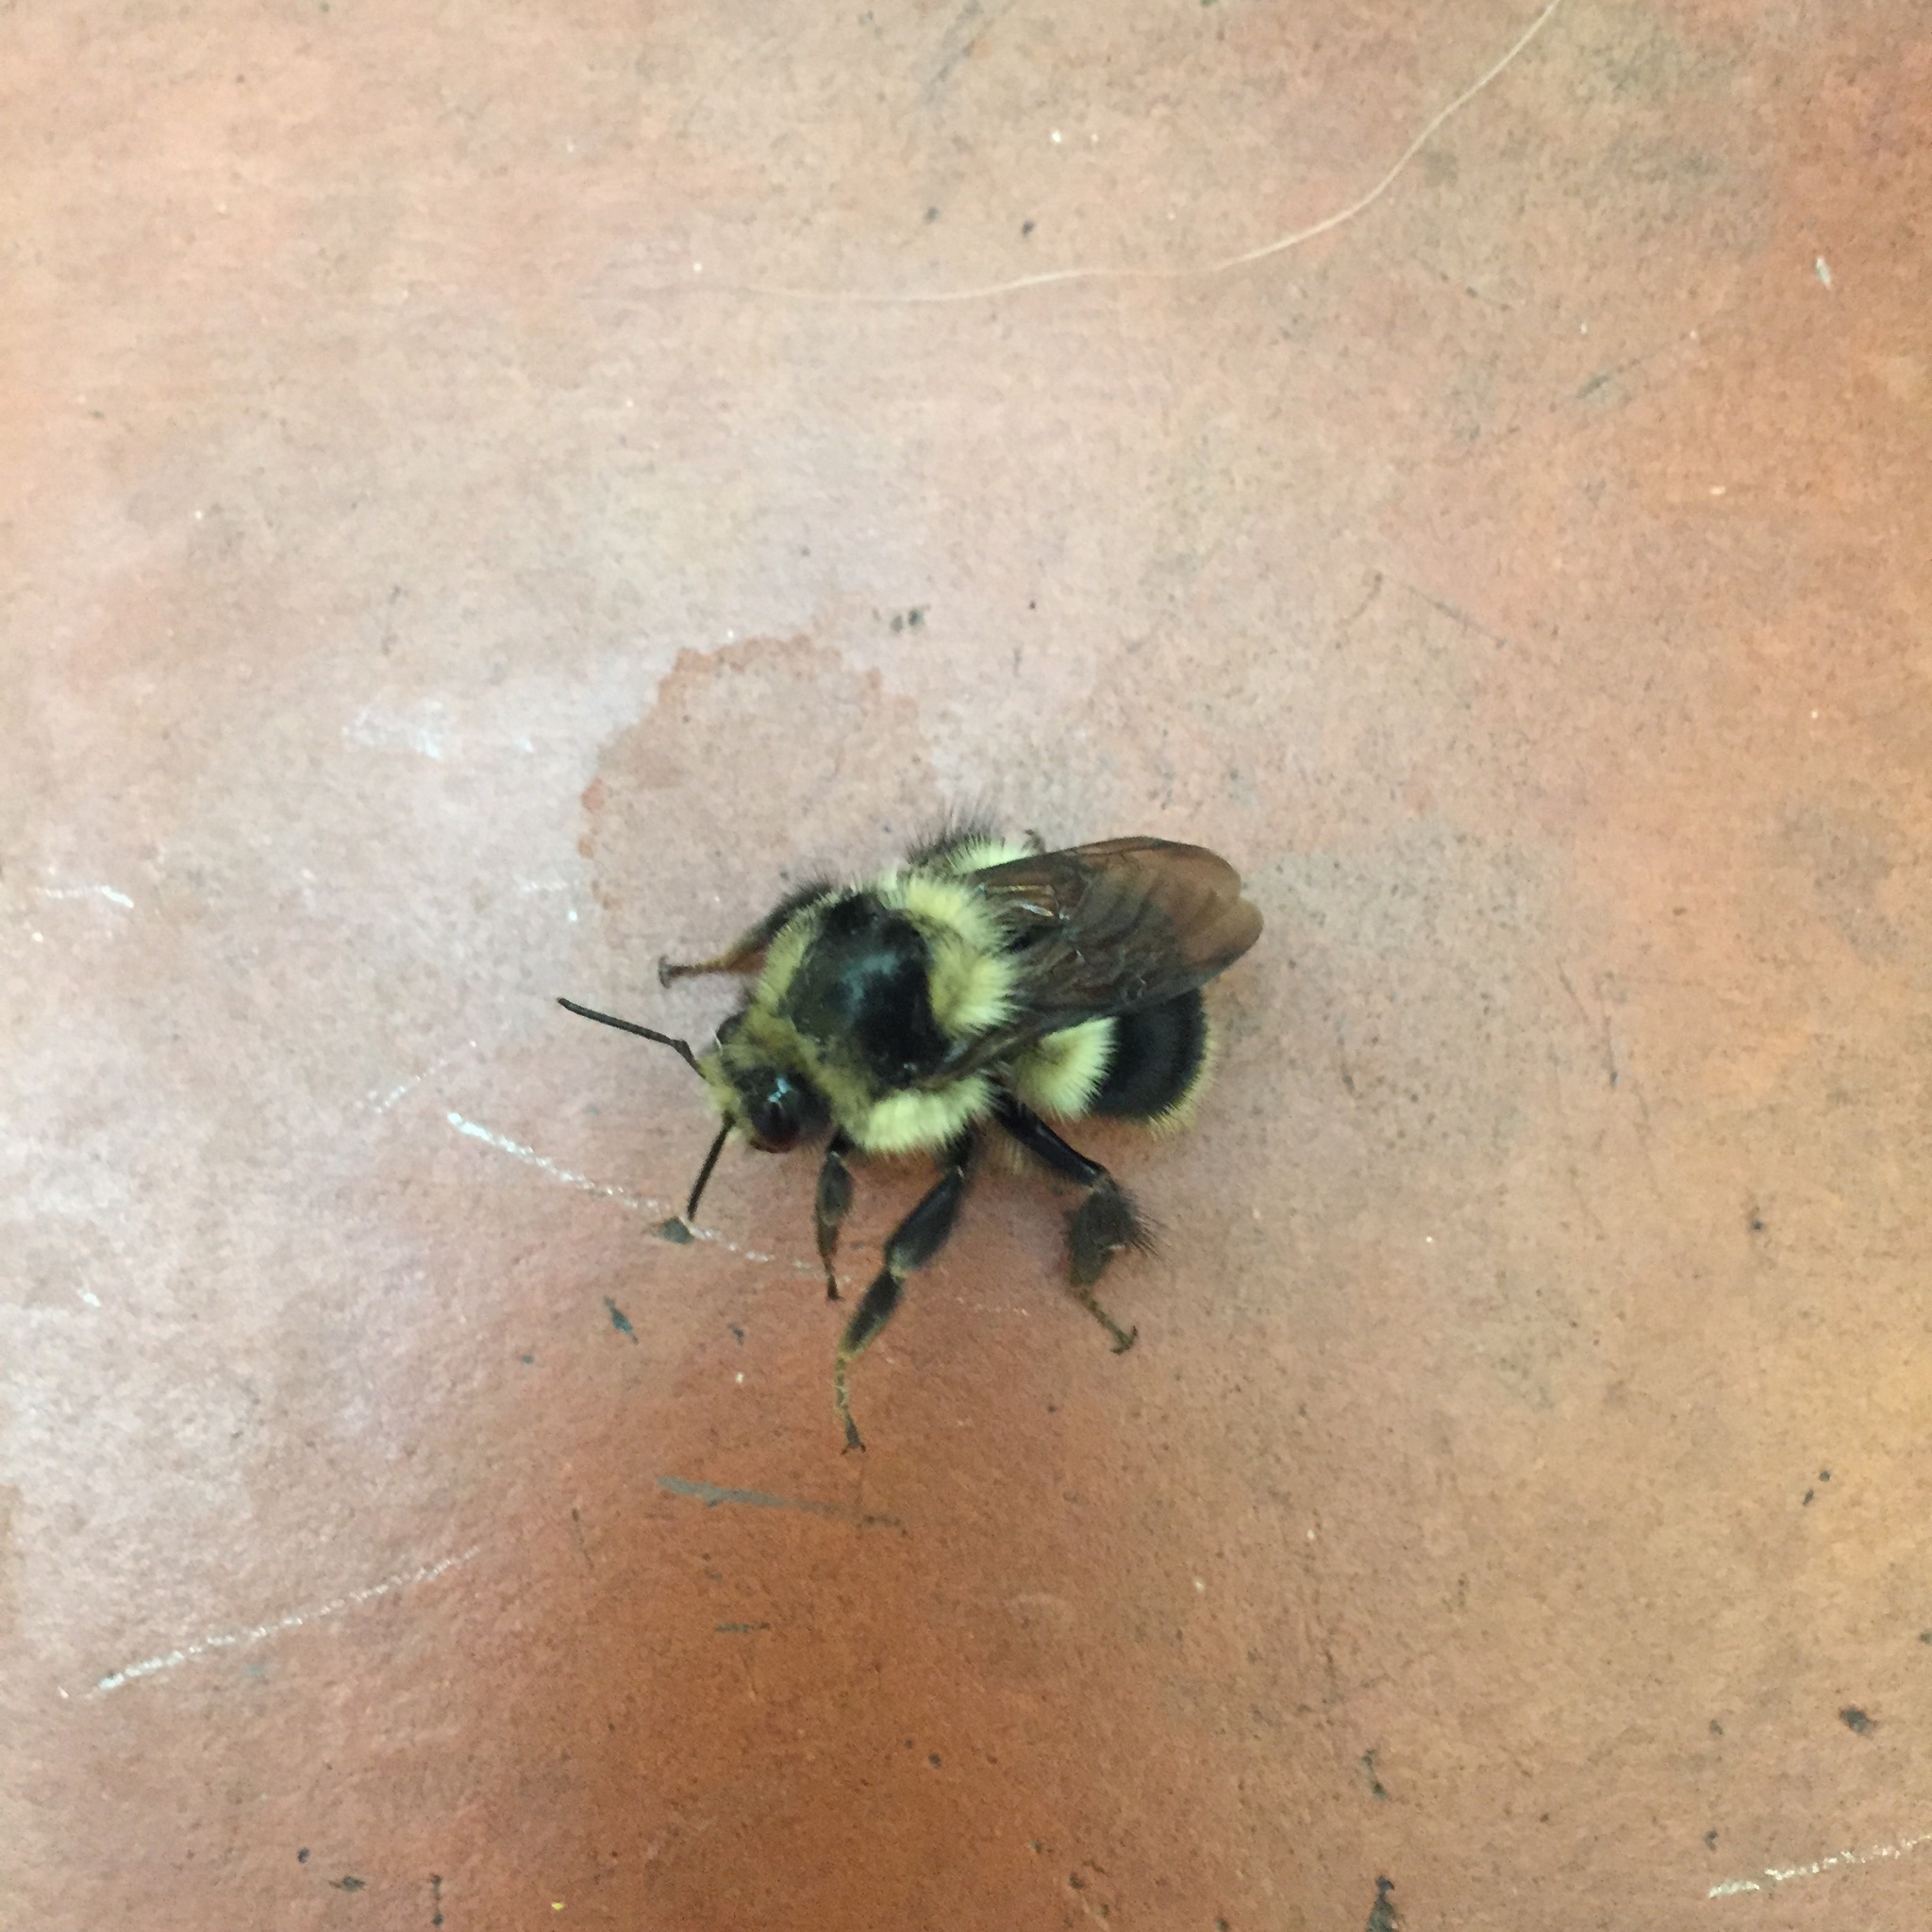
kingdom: Animalia
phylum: Arthropoda
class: Insecta
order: Hymenoptera
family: Apidae
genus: Bombus
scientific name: Bombus melanopygus
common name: Black tail bumble bee
